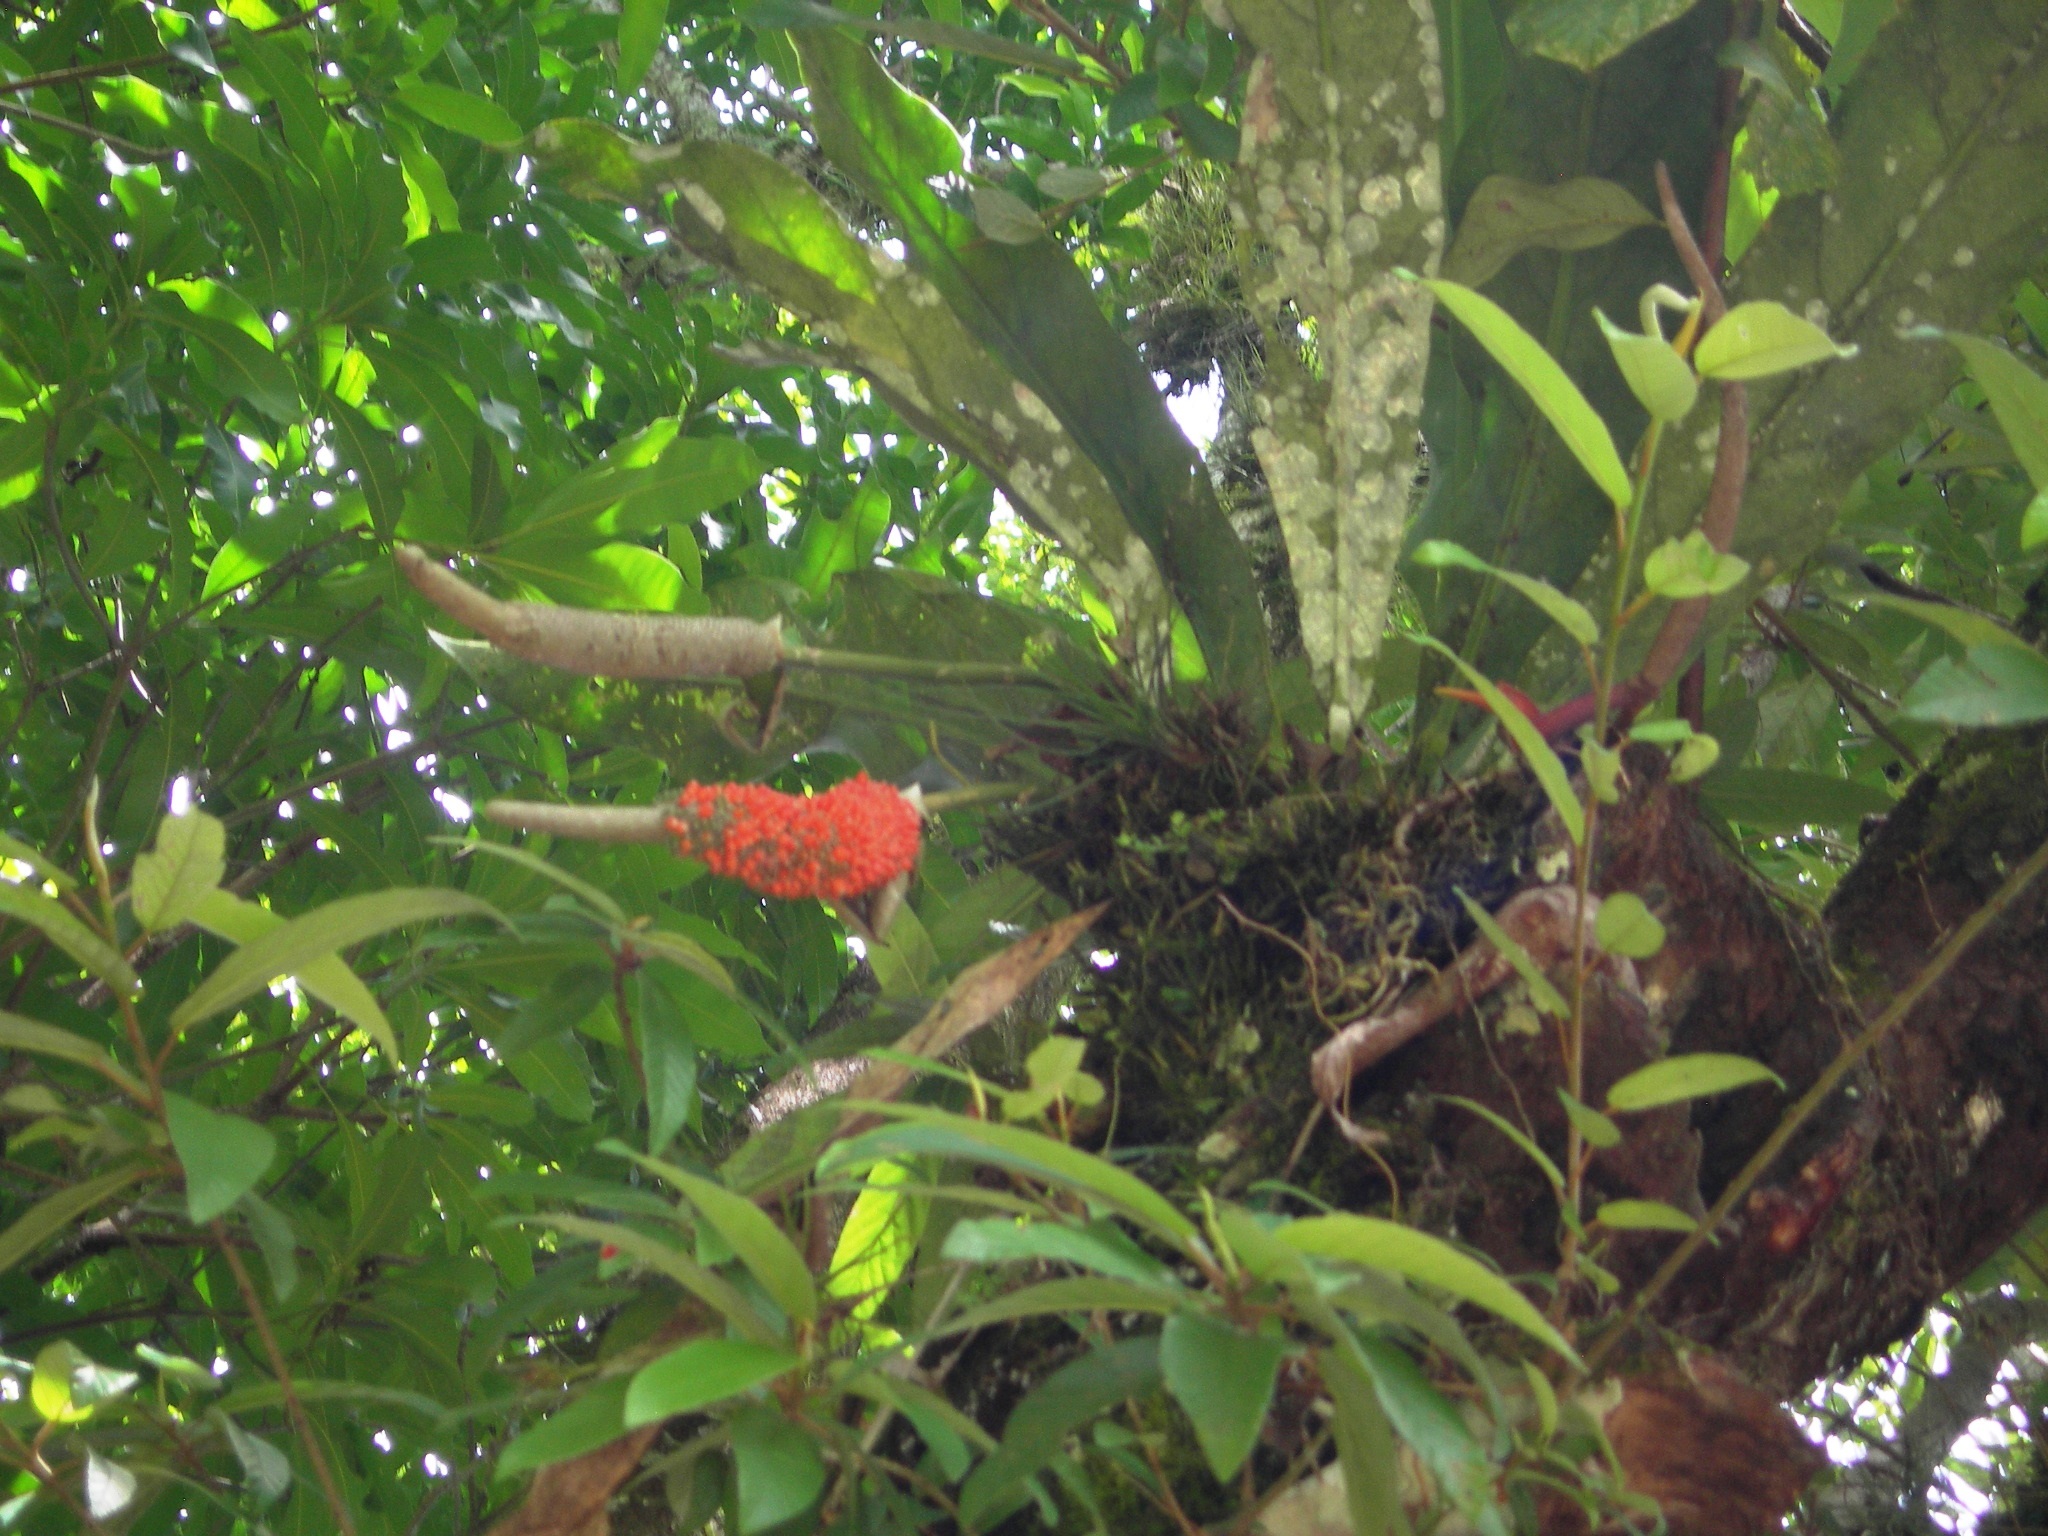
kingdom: Plantae
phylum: Tracheophyta
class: Liliopsida
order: Alismatales
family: Araceae
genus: Anthurium
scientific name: Anthurium schlechtendalii
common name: Laceleaf
